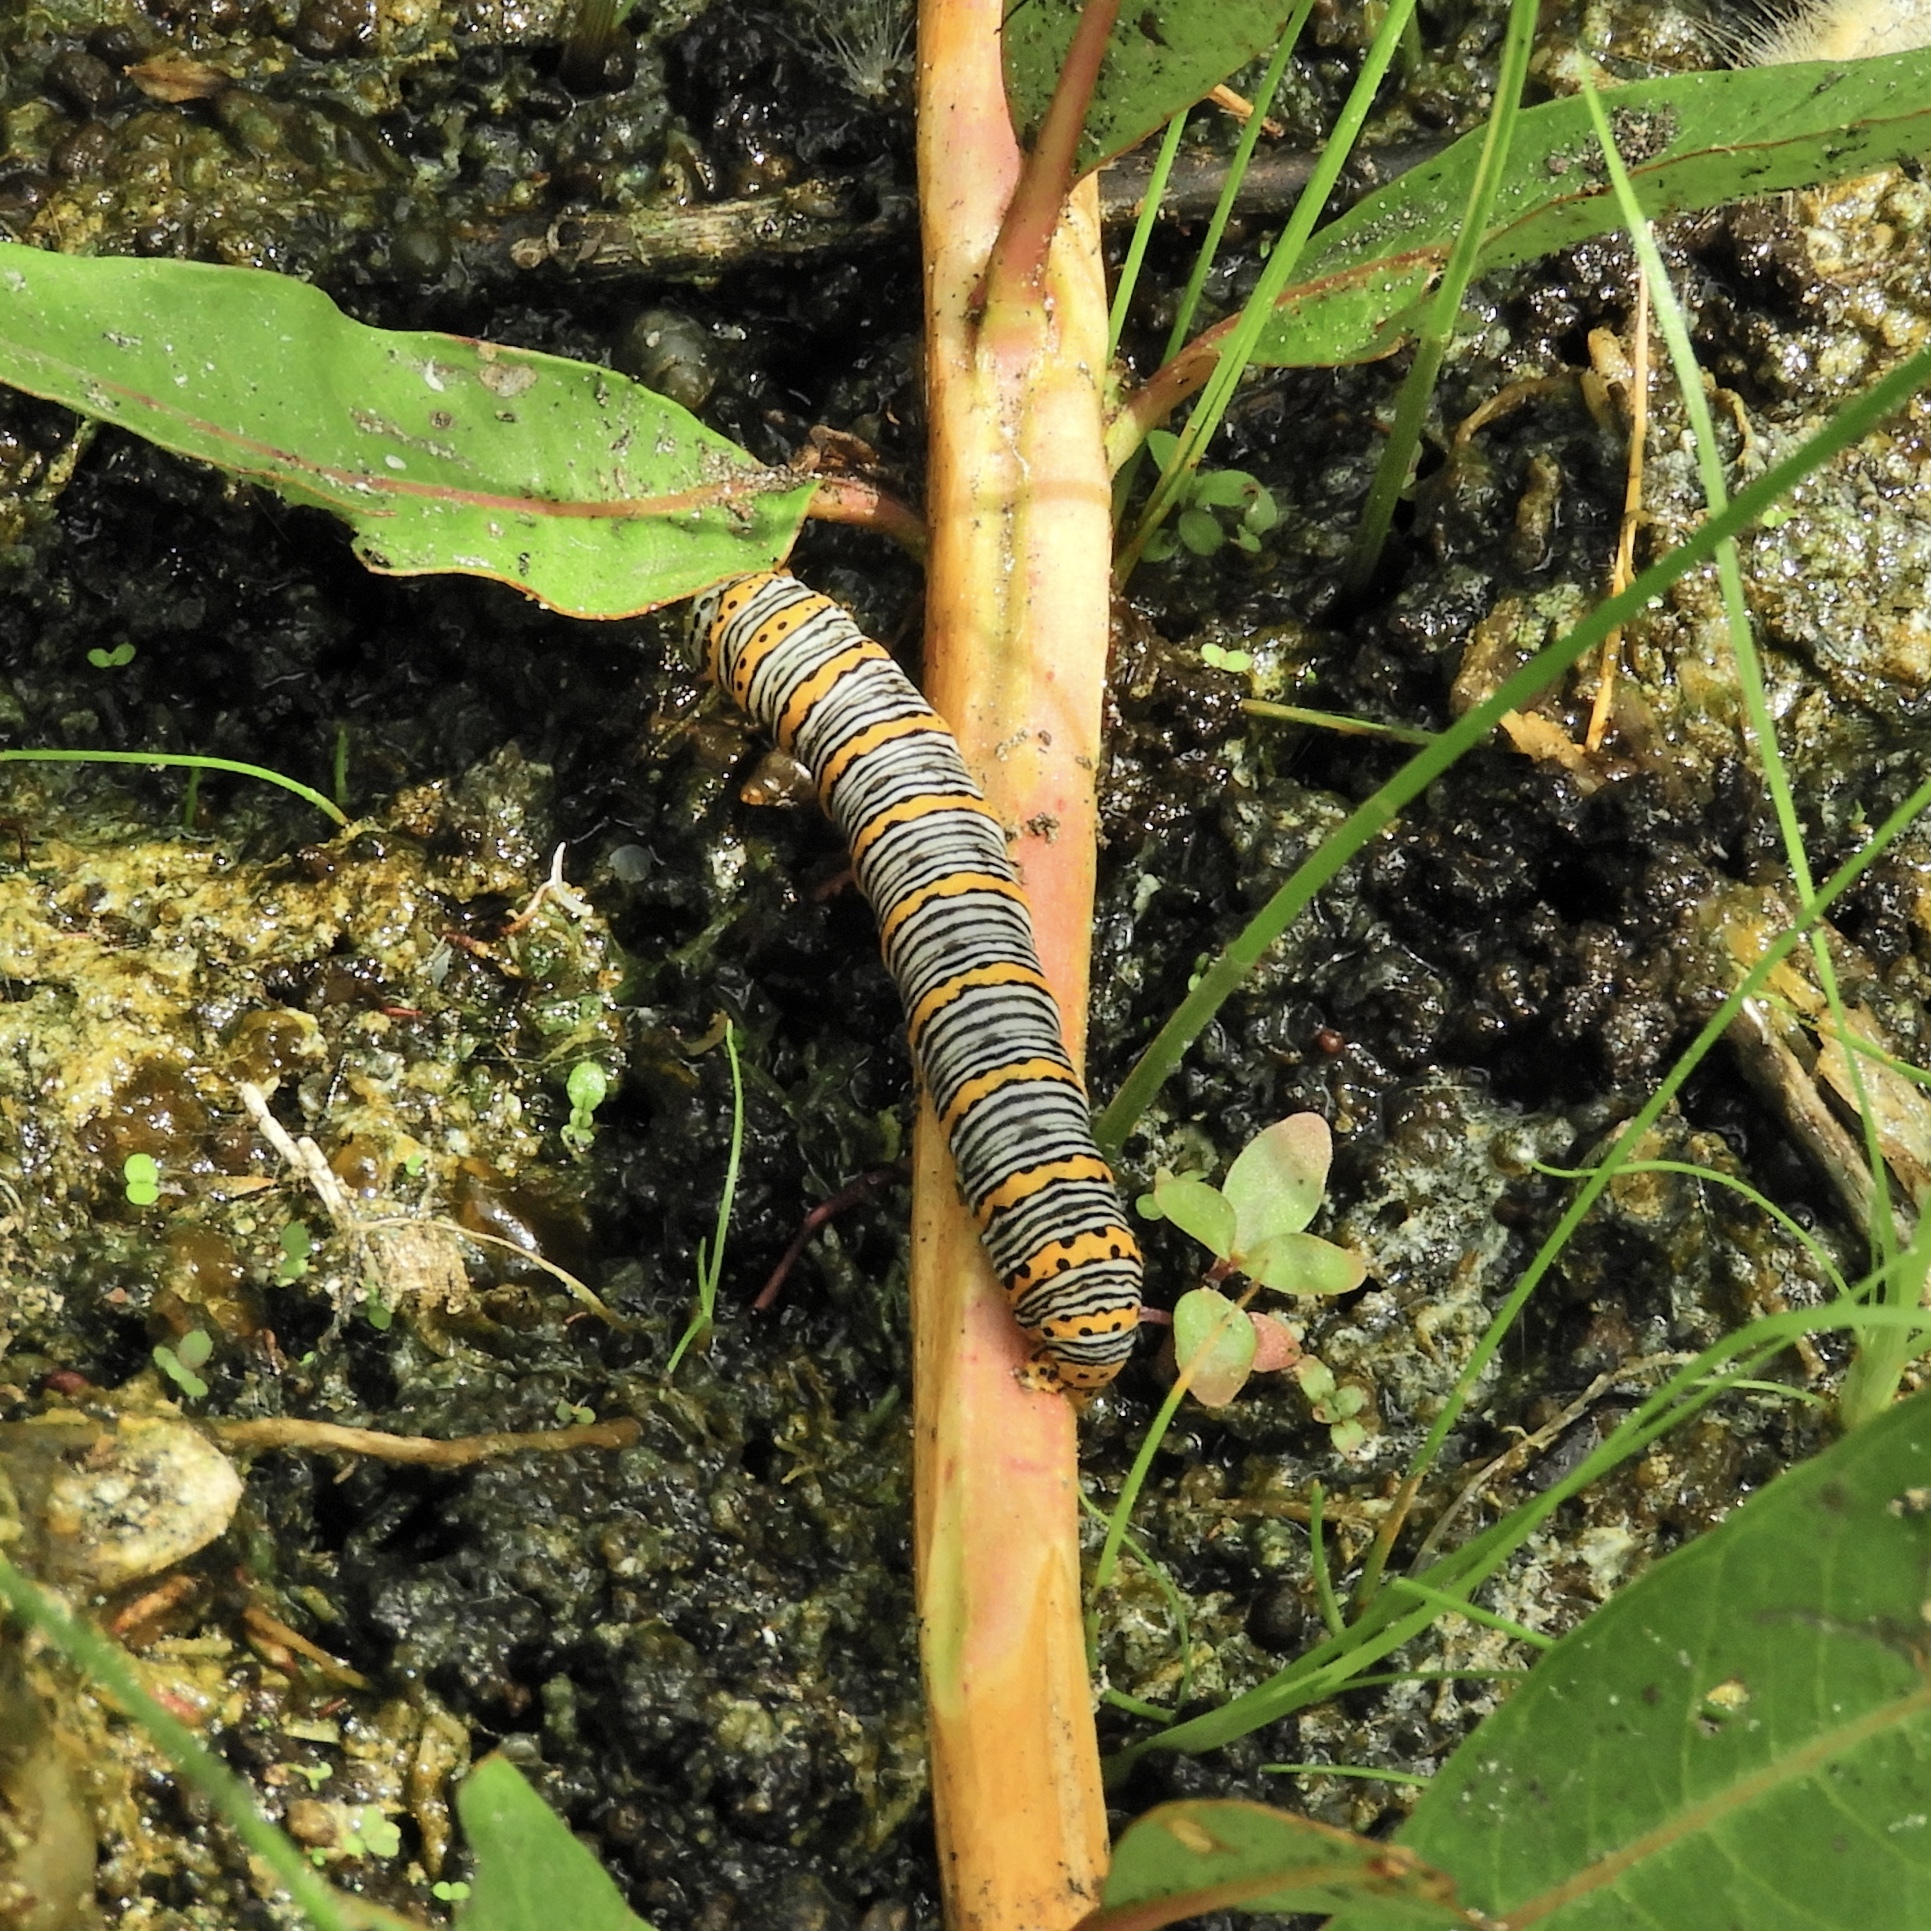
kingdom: Animalia
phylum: Arthropoda
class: Insecta
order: Lepidoptera
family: Noctuidae
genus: Eudryas
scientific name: Eudryas unio
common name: Pearly wood-nymph
